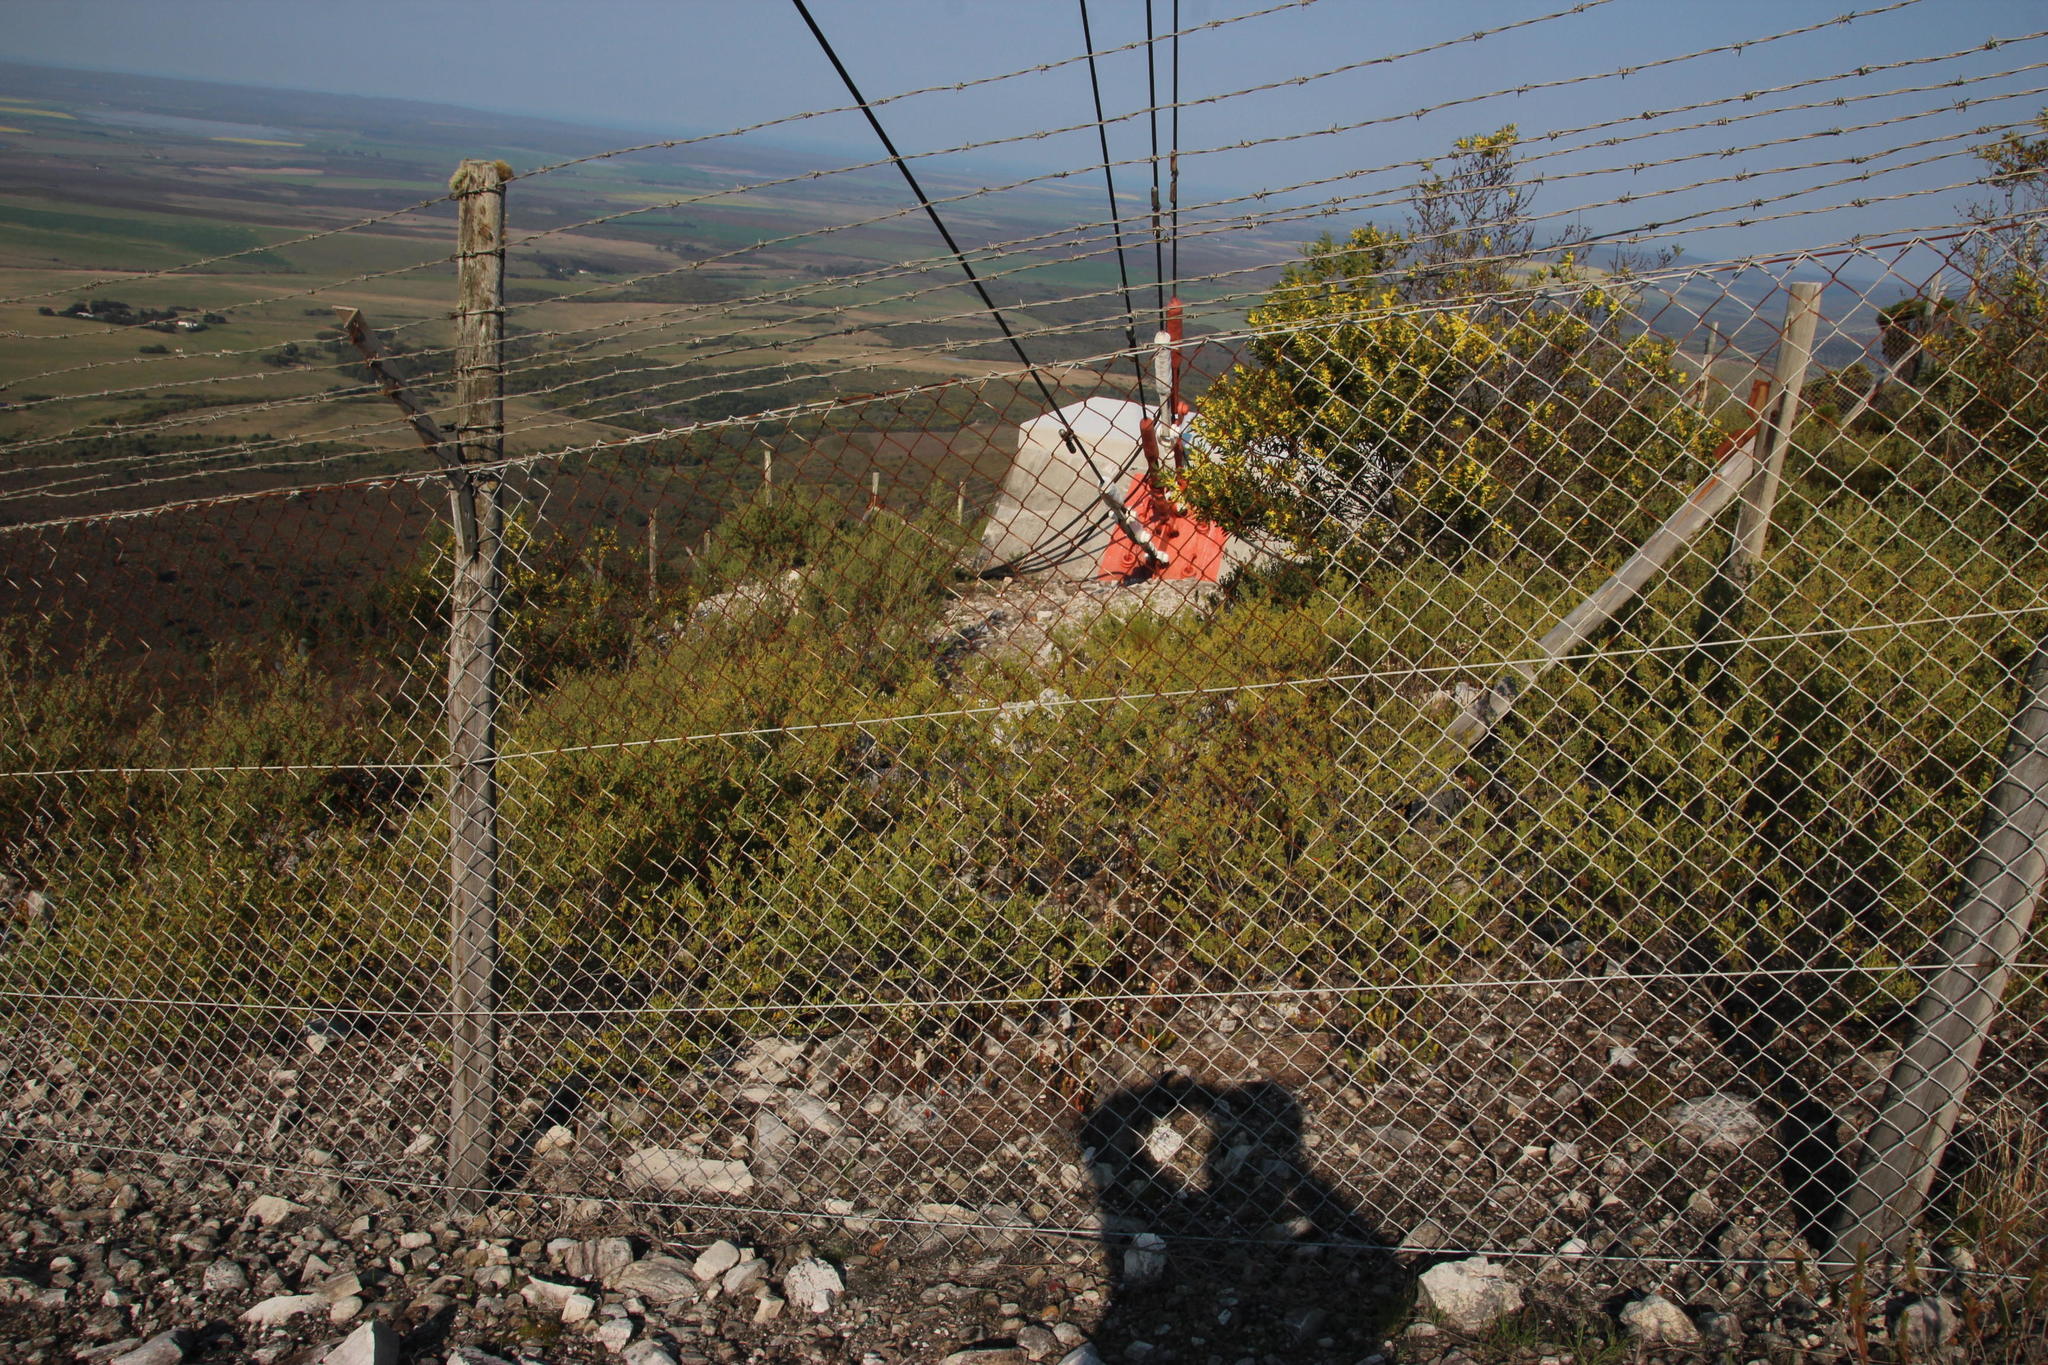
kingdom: Plantae
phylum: Tracheophyta
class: Magnoliopsida
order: Myrtales
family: Myrtaceae
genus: Leptospermum
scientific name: Leptospermum laevigatum
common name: Australian teatree
